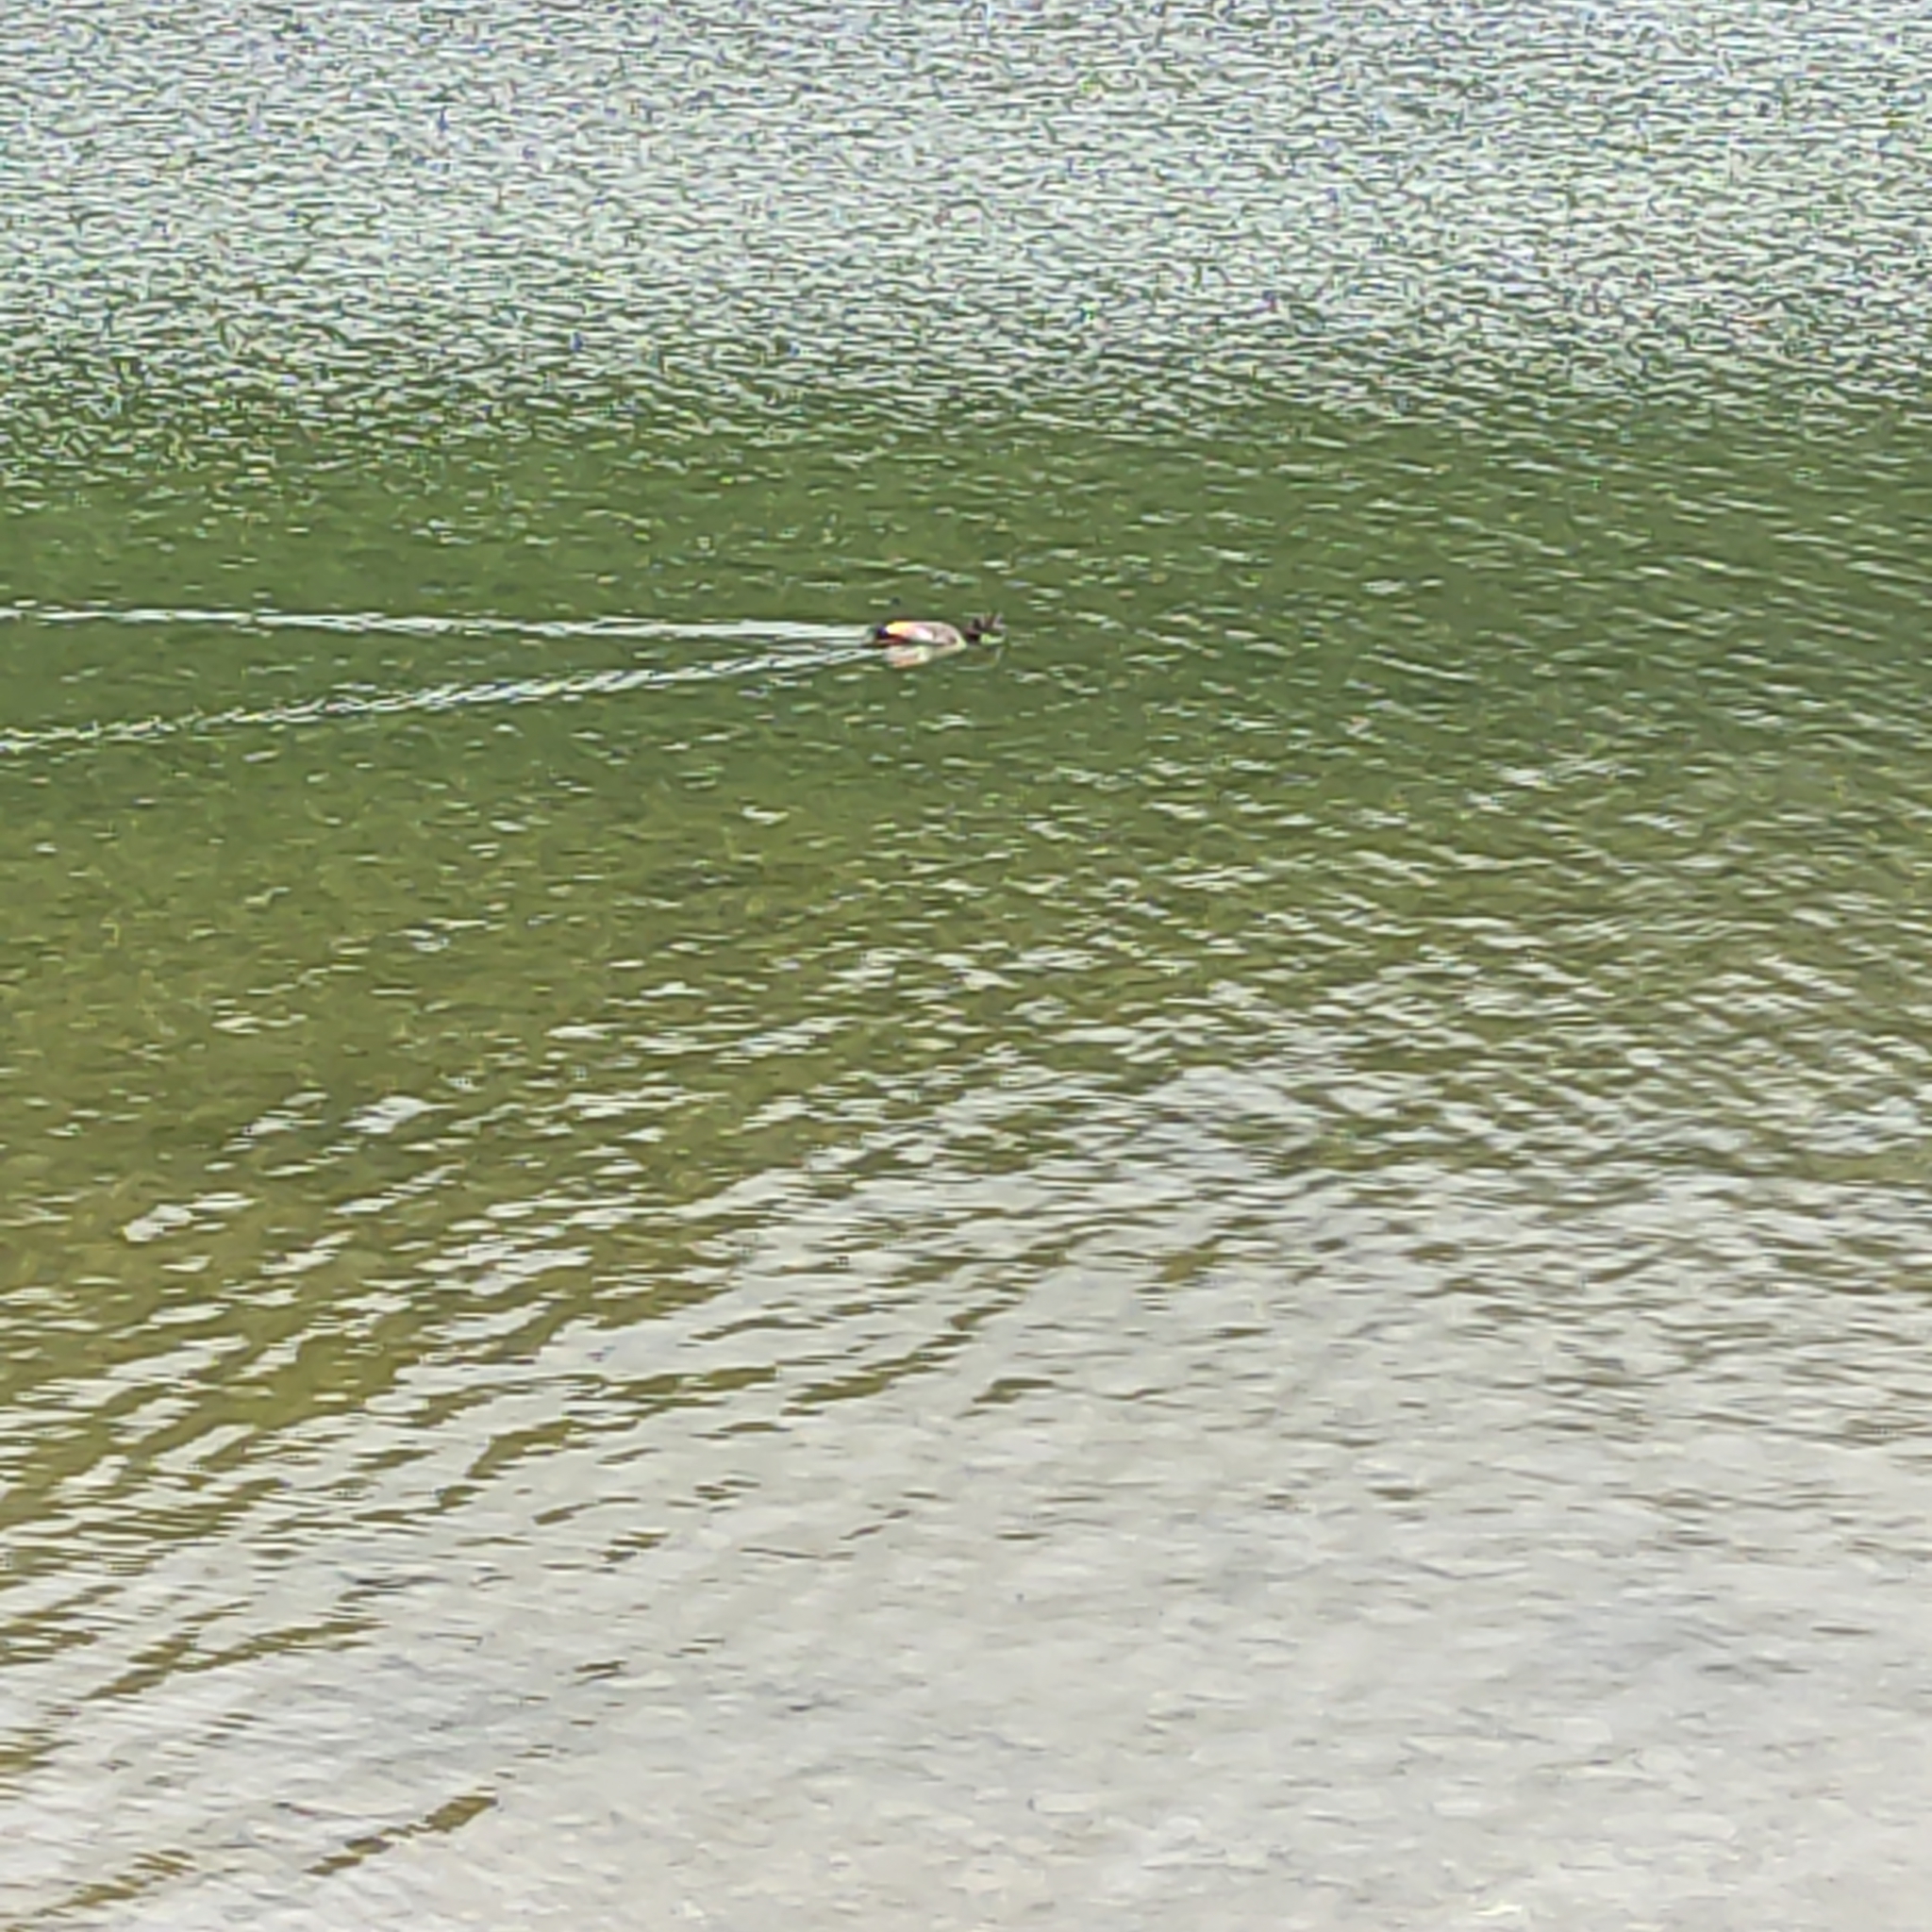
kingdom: Animalia
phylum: Chordata
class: Aves
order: Anseriformes
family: Anatidae
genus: Tadorna
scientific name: Tadorna variegata
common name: Paradise shelduck
